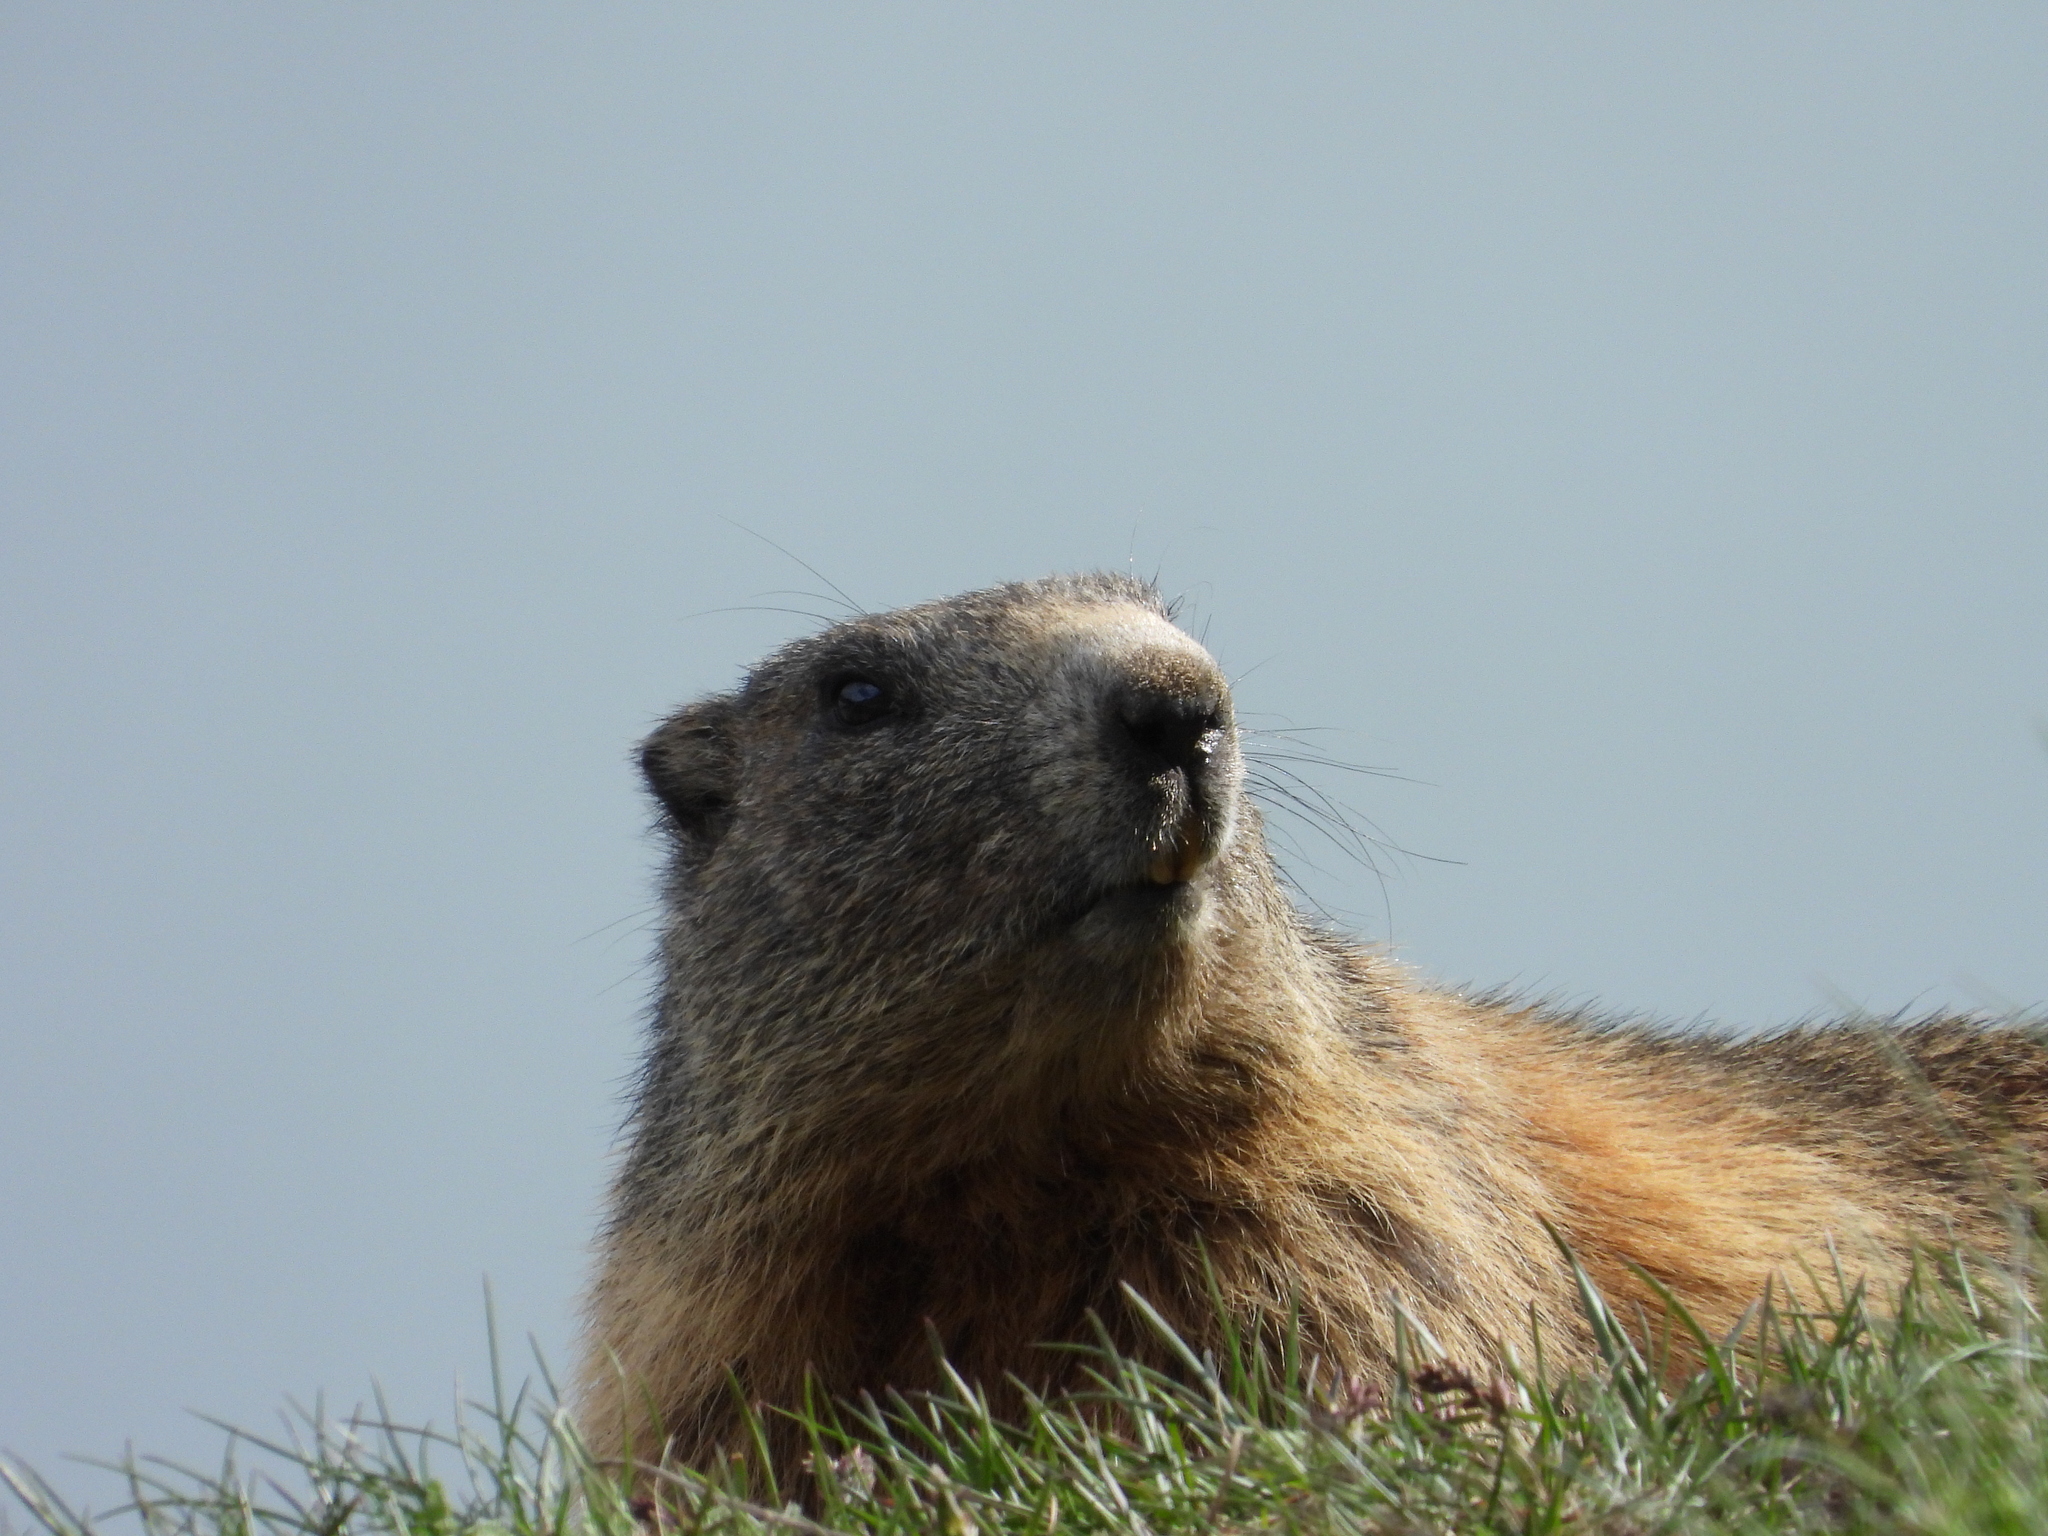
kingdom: Animalia
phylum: Chordata
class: Mammalia
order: Rodentia
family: Sciuridae
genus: Marmota
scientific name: Marmota marmota
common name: Alpine marmot
